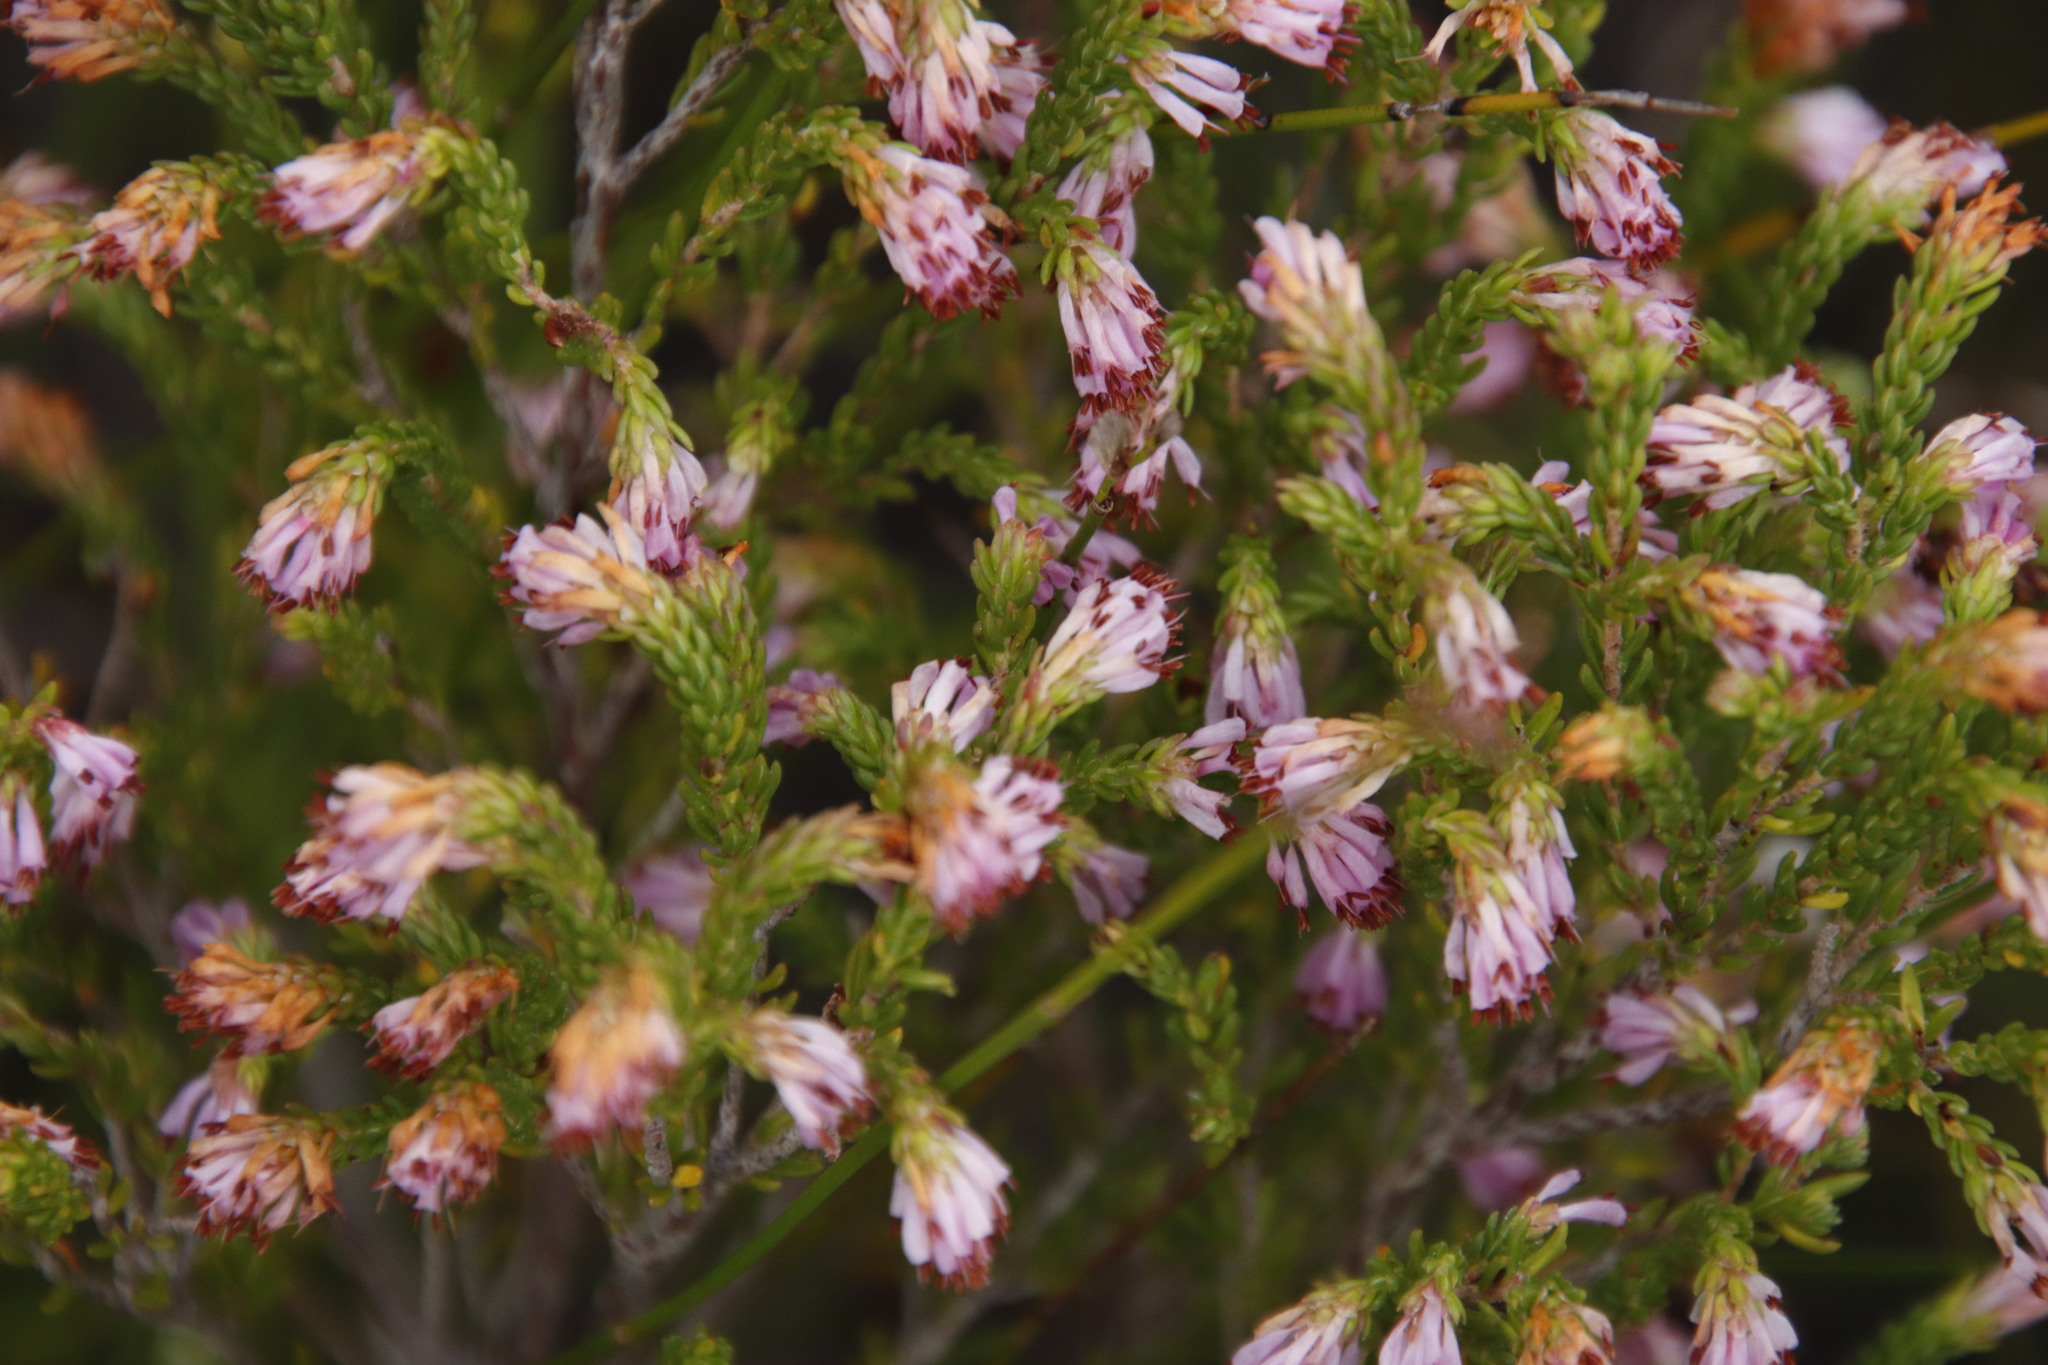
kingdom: Plantae
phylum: Tracheophyta
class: Magnoliopsida
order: Ericales
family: Ericaceae
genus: Erica
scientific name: Erica labialis
